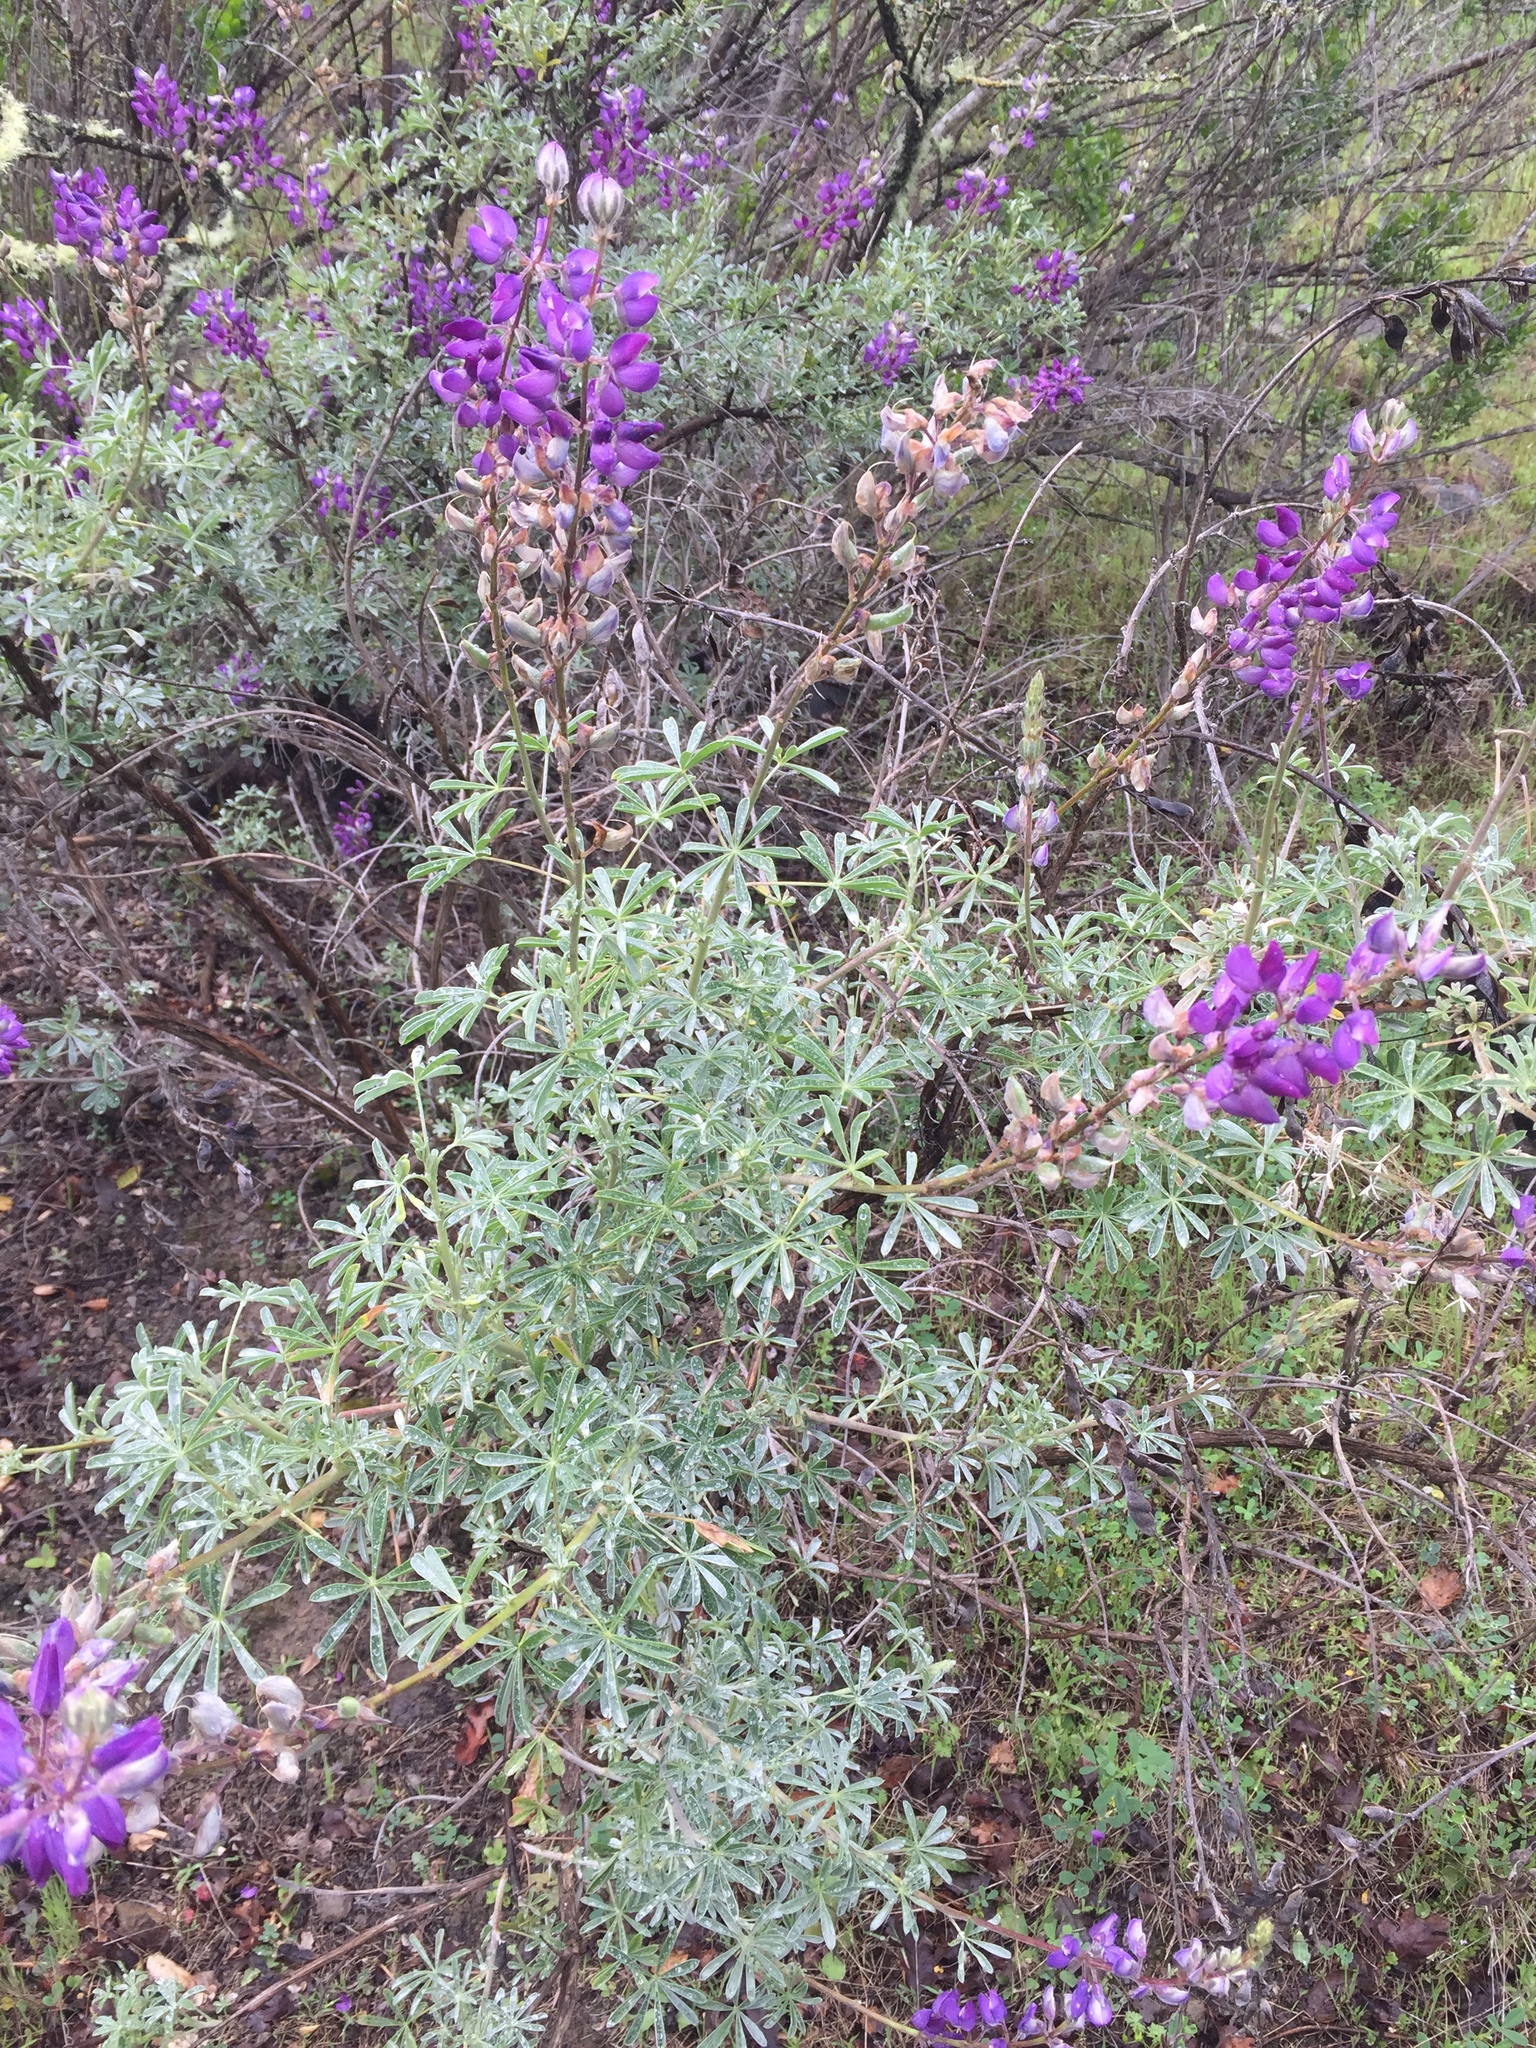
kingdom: Plantae
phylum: Tracheophyta
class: Magnoliopsida
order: Fabales
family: Fabaceae
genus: Lupinus
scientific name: Lupinus albifrons
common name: Foothill lupine
